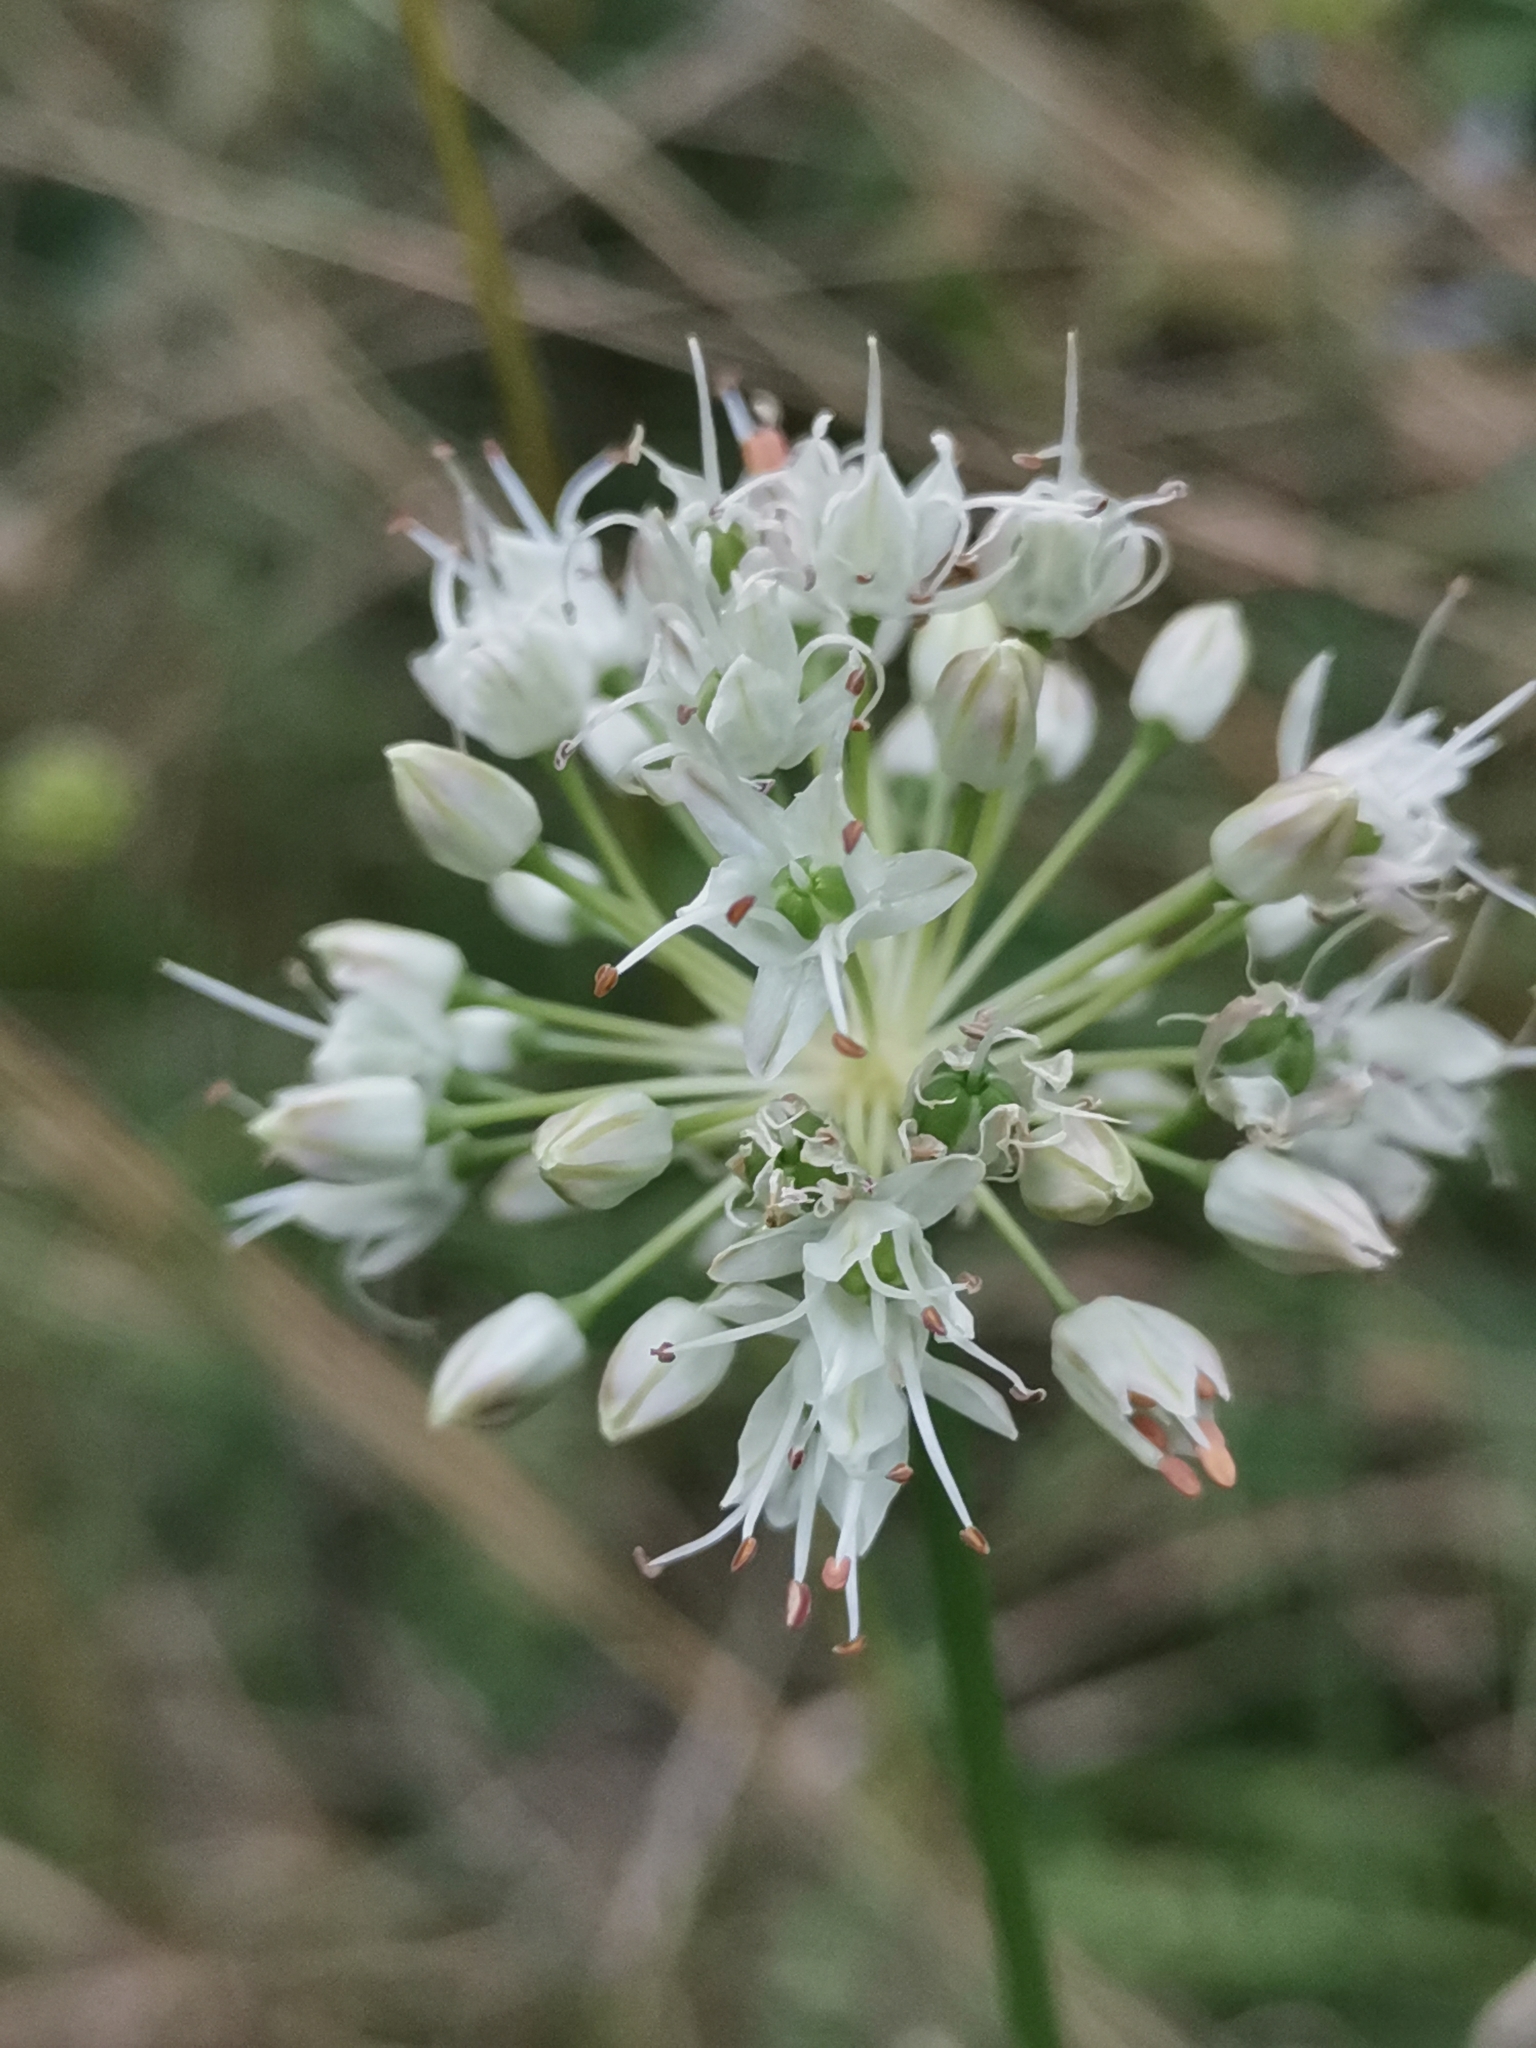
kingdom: Plantae
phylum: Tracheophyta
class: Liliopsida
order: Asparagales
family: Amaryllidaceae
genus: Allium
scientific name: Allium lusitanicum
